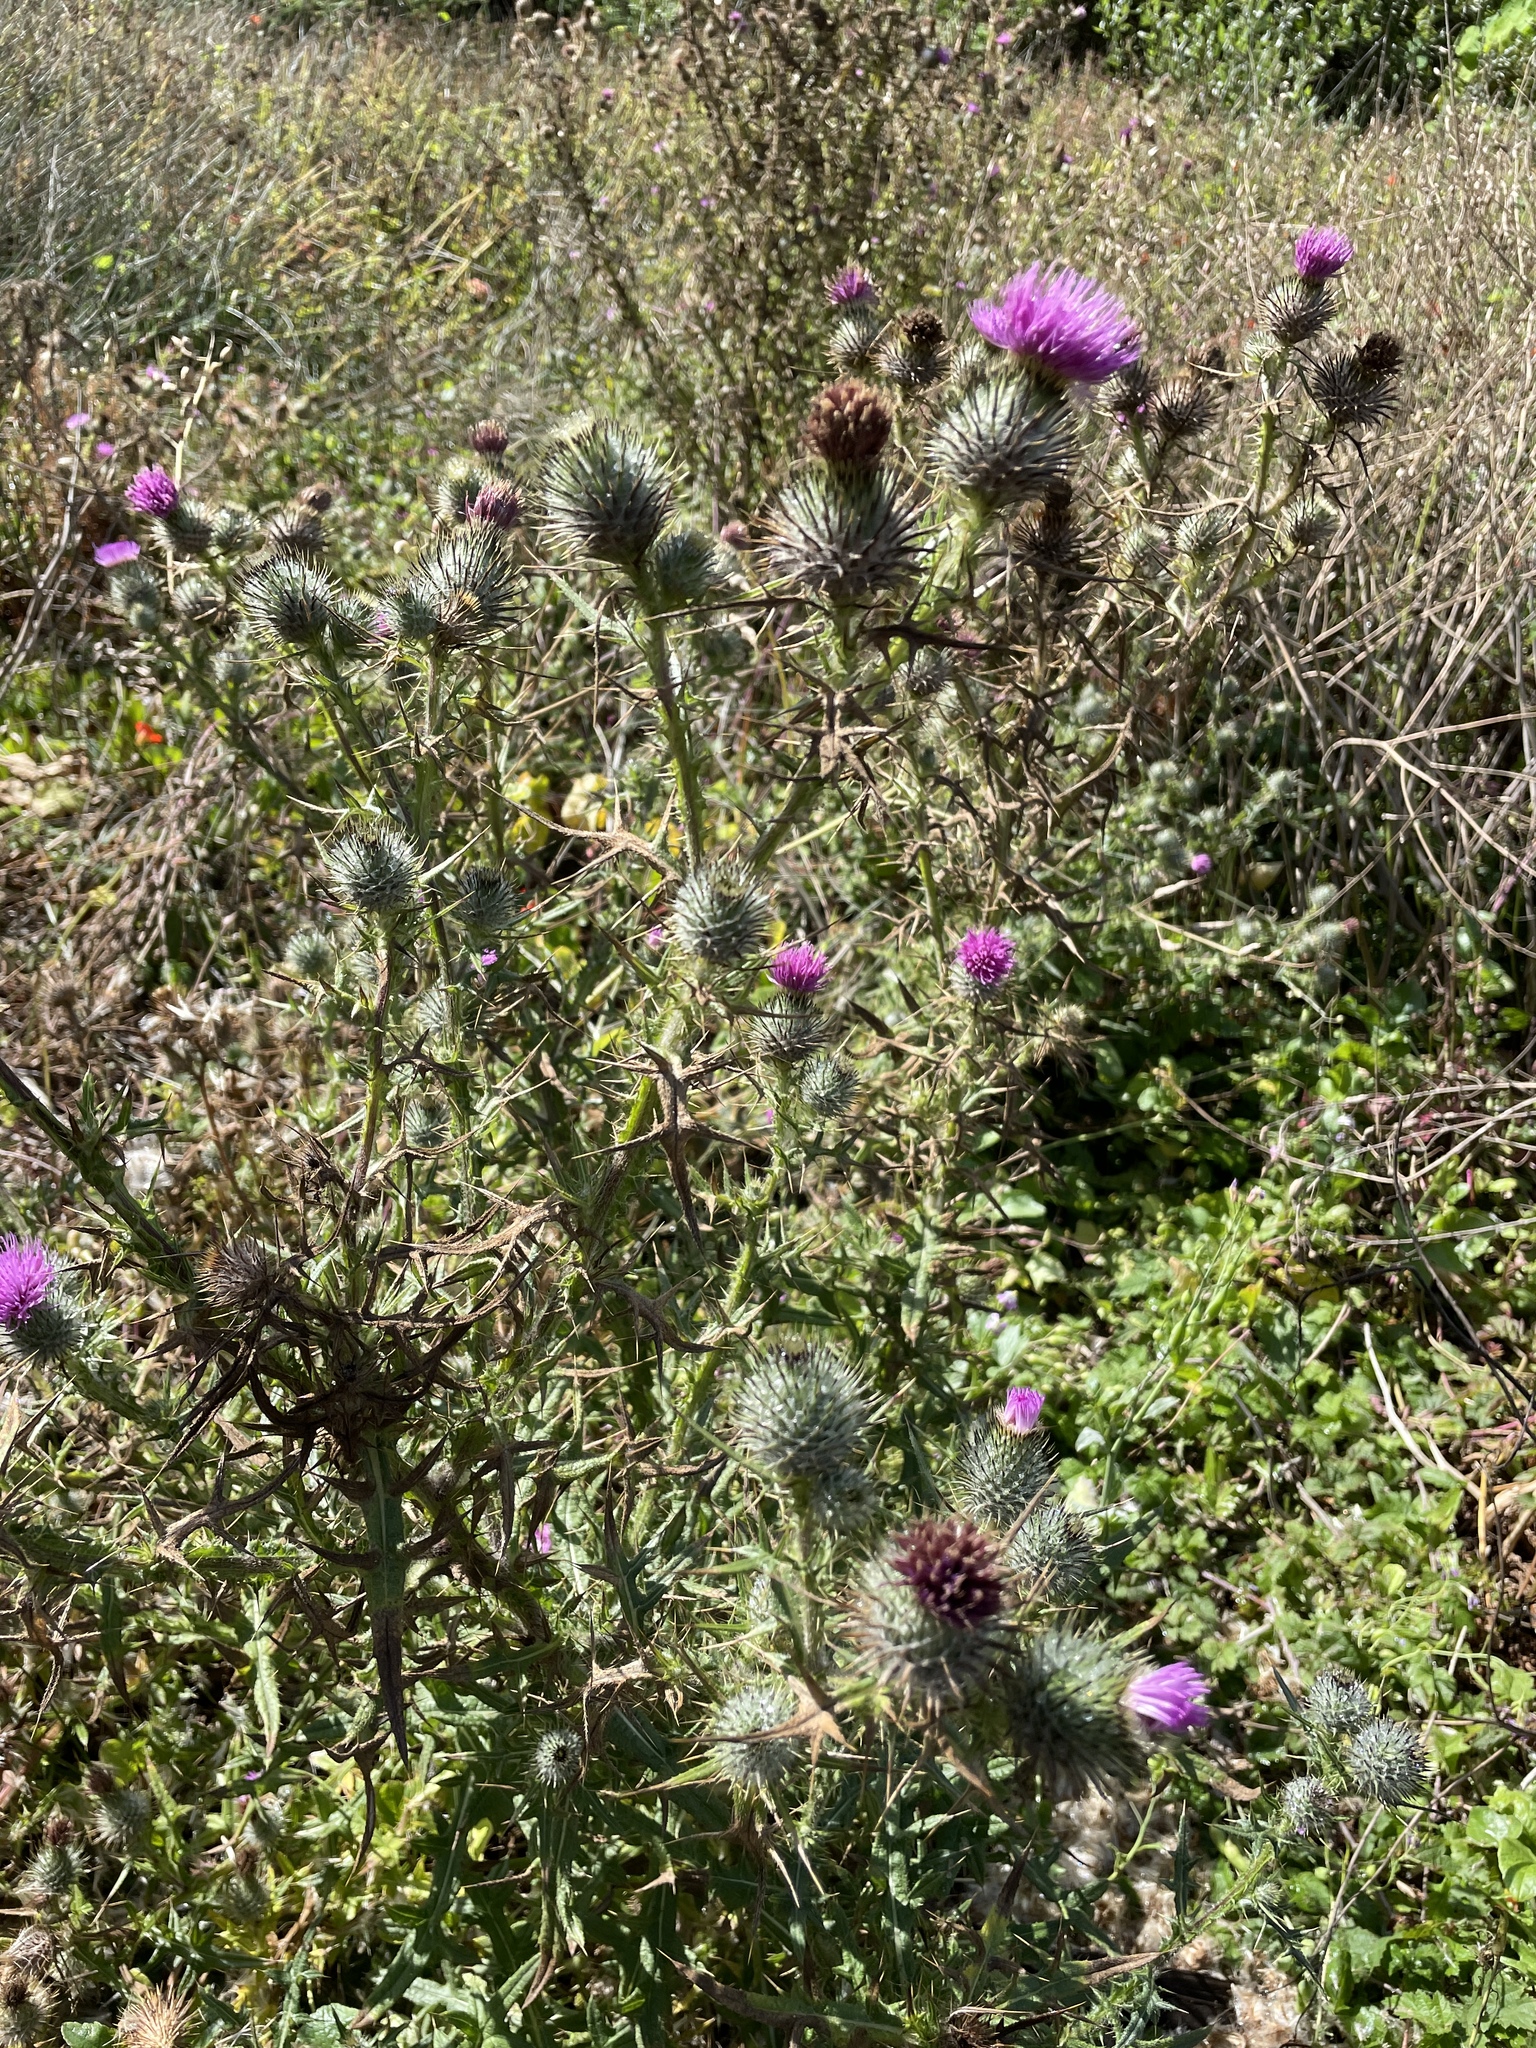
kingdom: Plantae
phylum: Tracheophyta
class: Magnoliopsida
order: Asterales
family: Asteraceae
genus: Cirsium
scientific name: Cirsium vulgare
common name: Bull thistle
